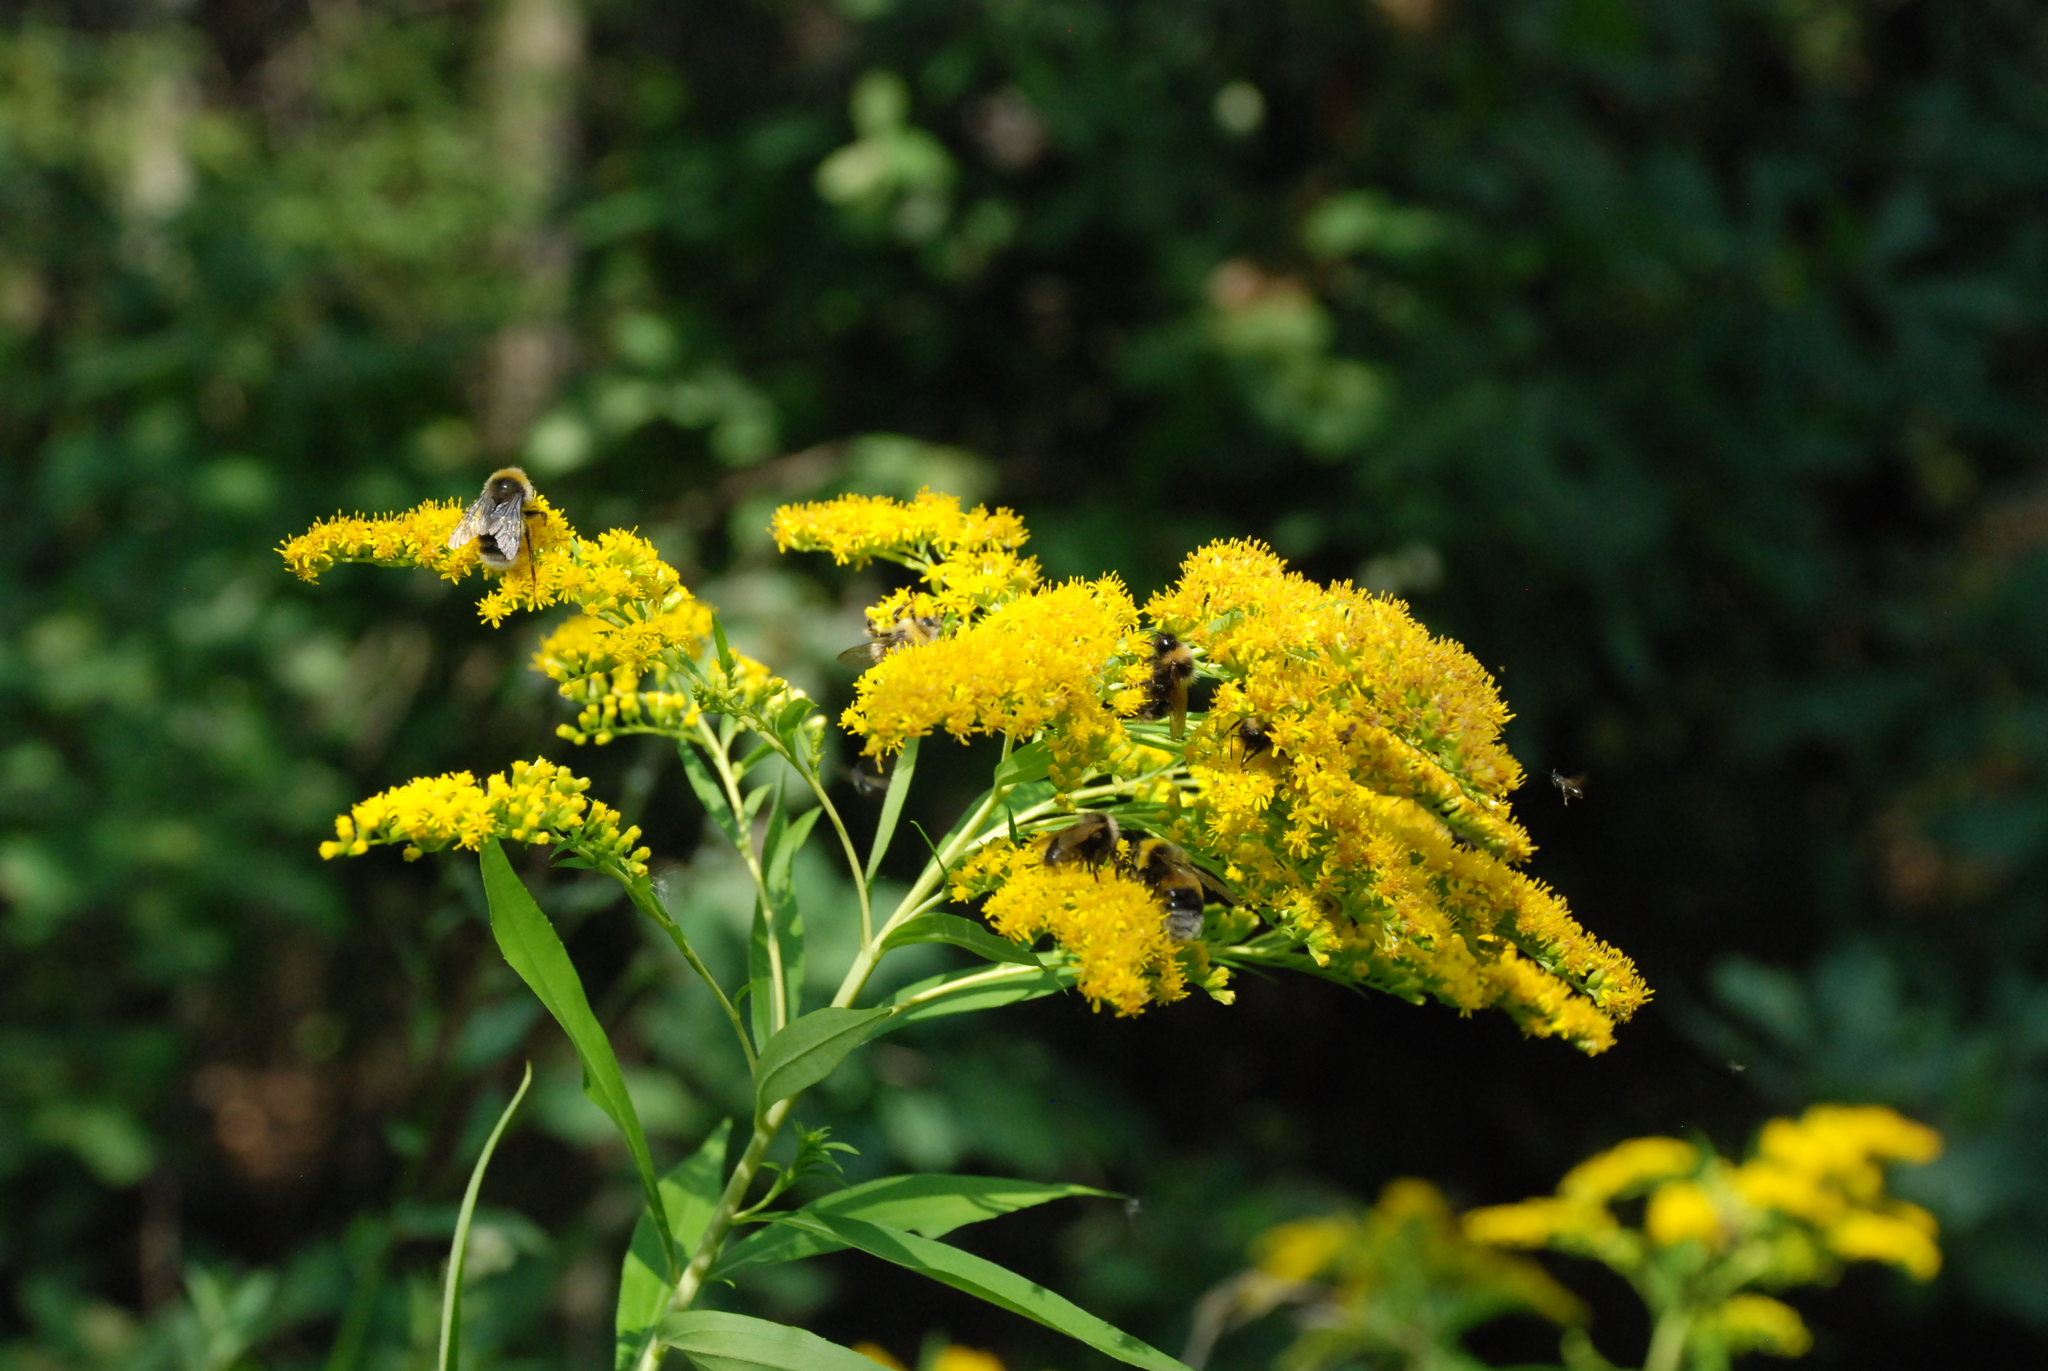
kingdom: Plantae
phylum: Tracheophyta
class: Magnoliopsida
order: Asterales
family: Asteraceae
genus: Solidago
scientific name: Solidago gigantea
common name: Giant goldenrod
